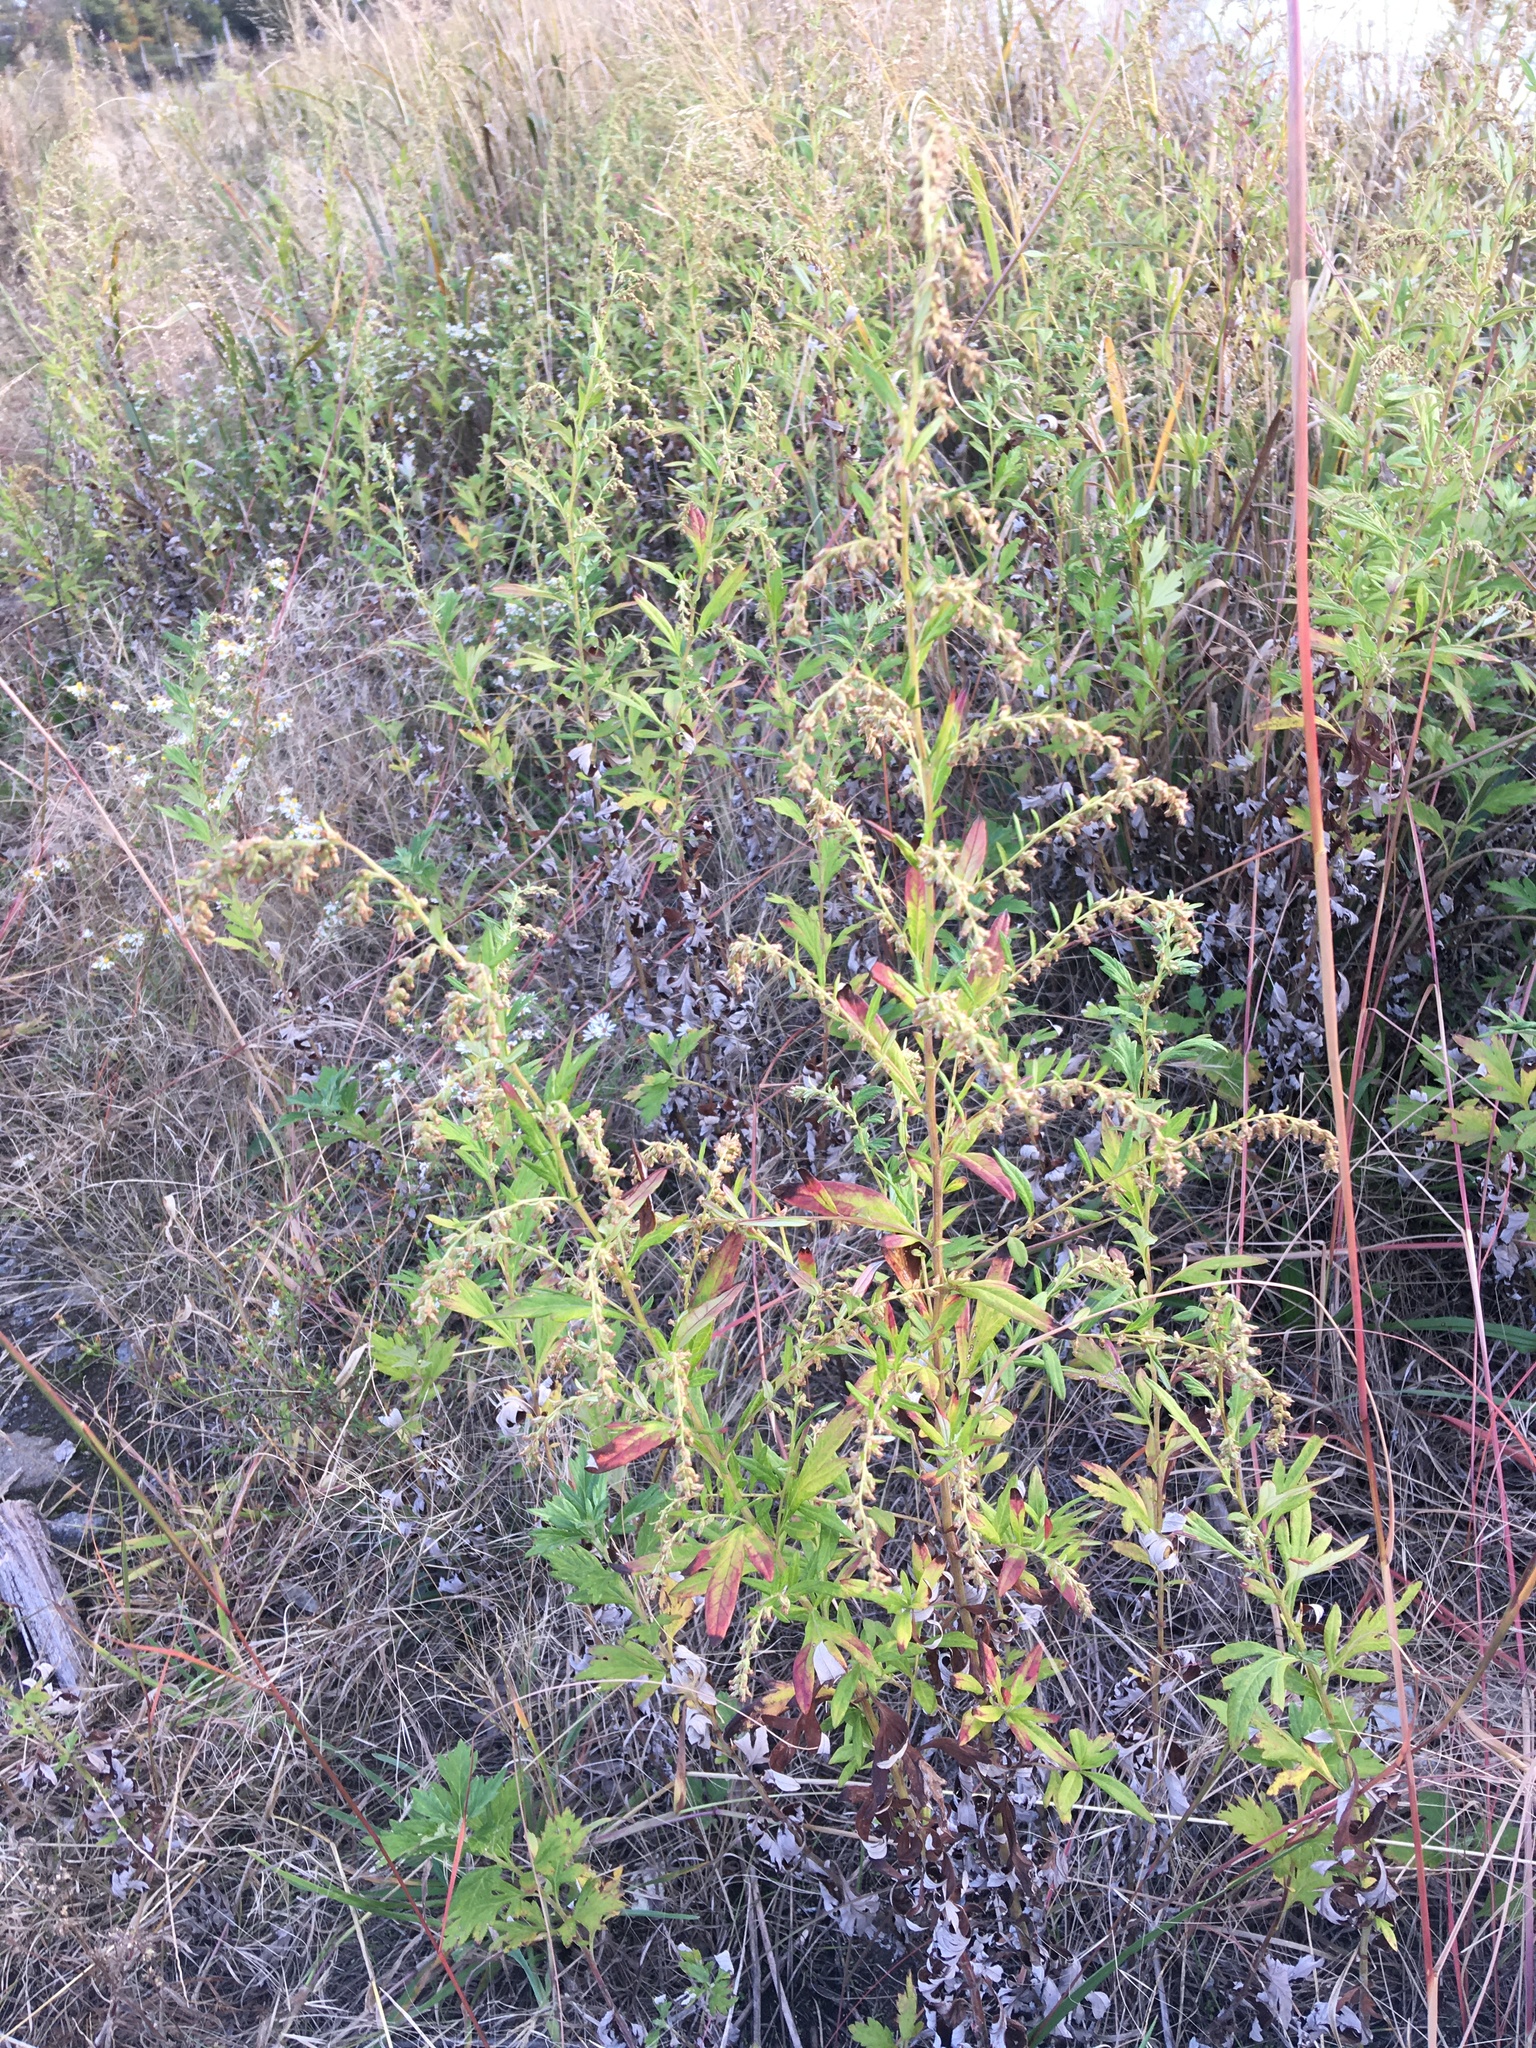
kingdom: Plantae
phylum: Tracheophyta
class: Magnoliopsida
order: Asterales
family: Asteraceae
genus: Artemisia
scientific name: Artemisia vulgaris
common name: Mugwort
